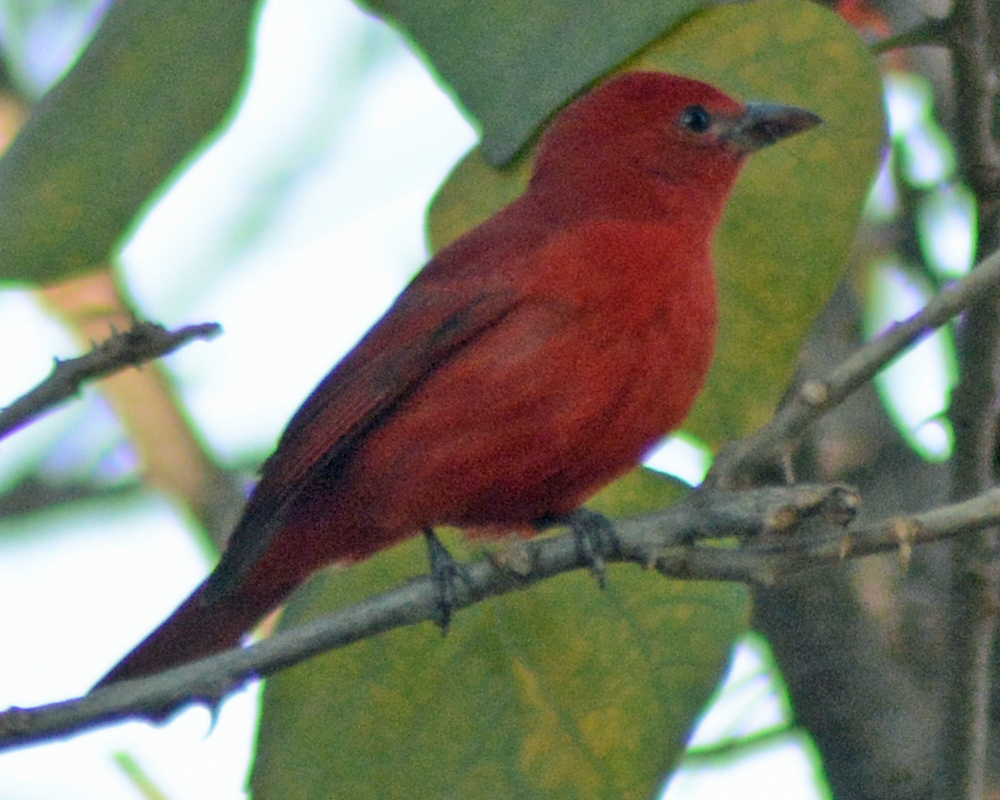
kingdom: Animalia
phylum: Chordata
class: Aves
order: Passeriformes
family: Cardinalidae
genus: Piranga
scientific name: Piranga flava
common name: Red tanager
